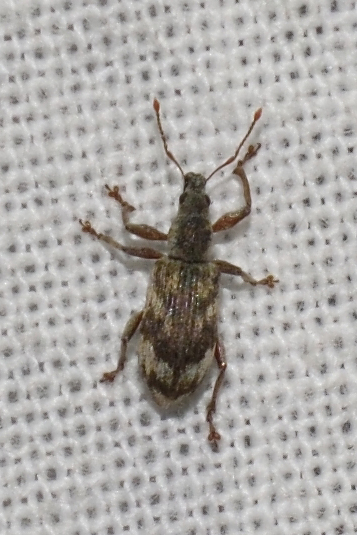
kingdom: Animalia
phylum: Arthropoda
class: Insecta
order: Coleoptera
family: Curculionidae
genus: Polydrusus
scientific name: Polydrusus tereticollis
